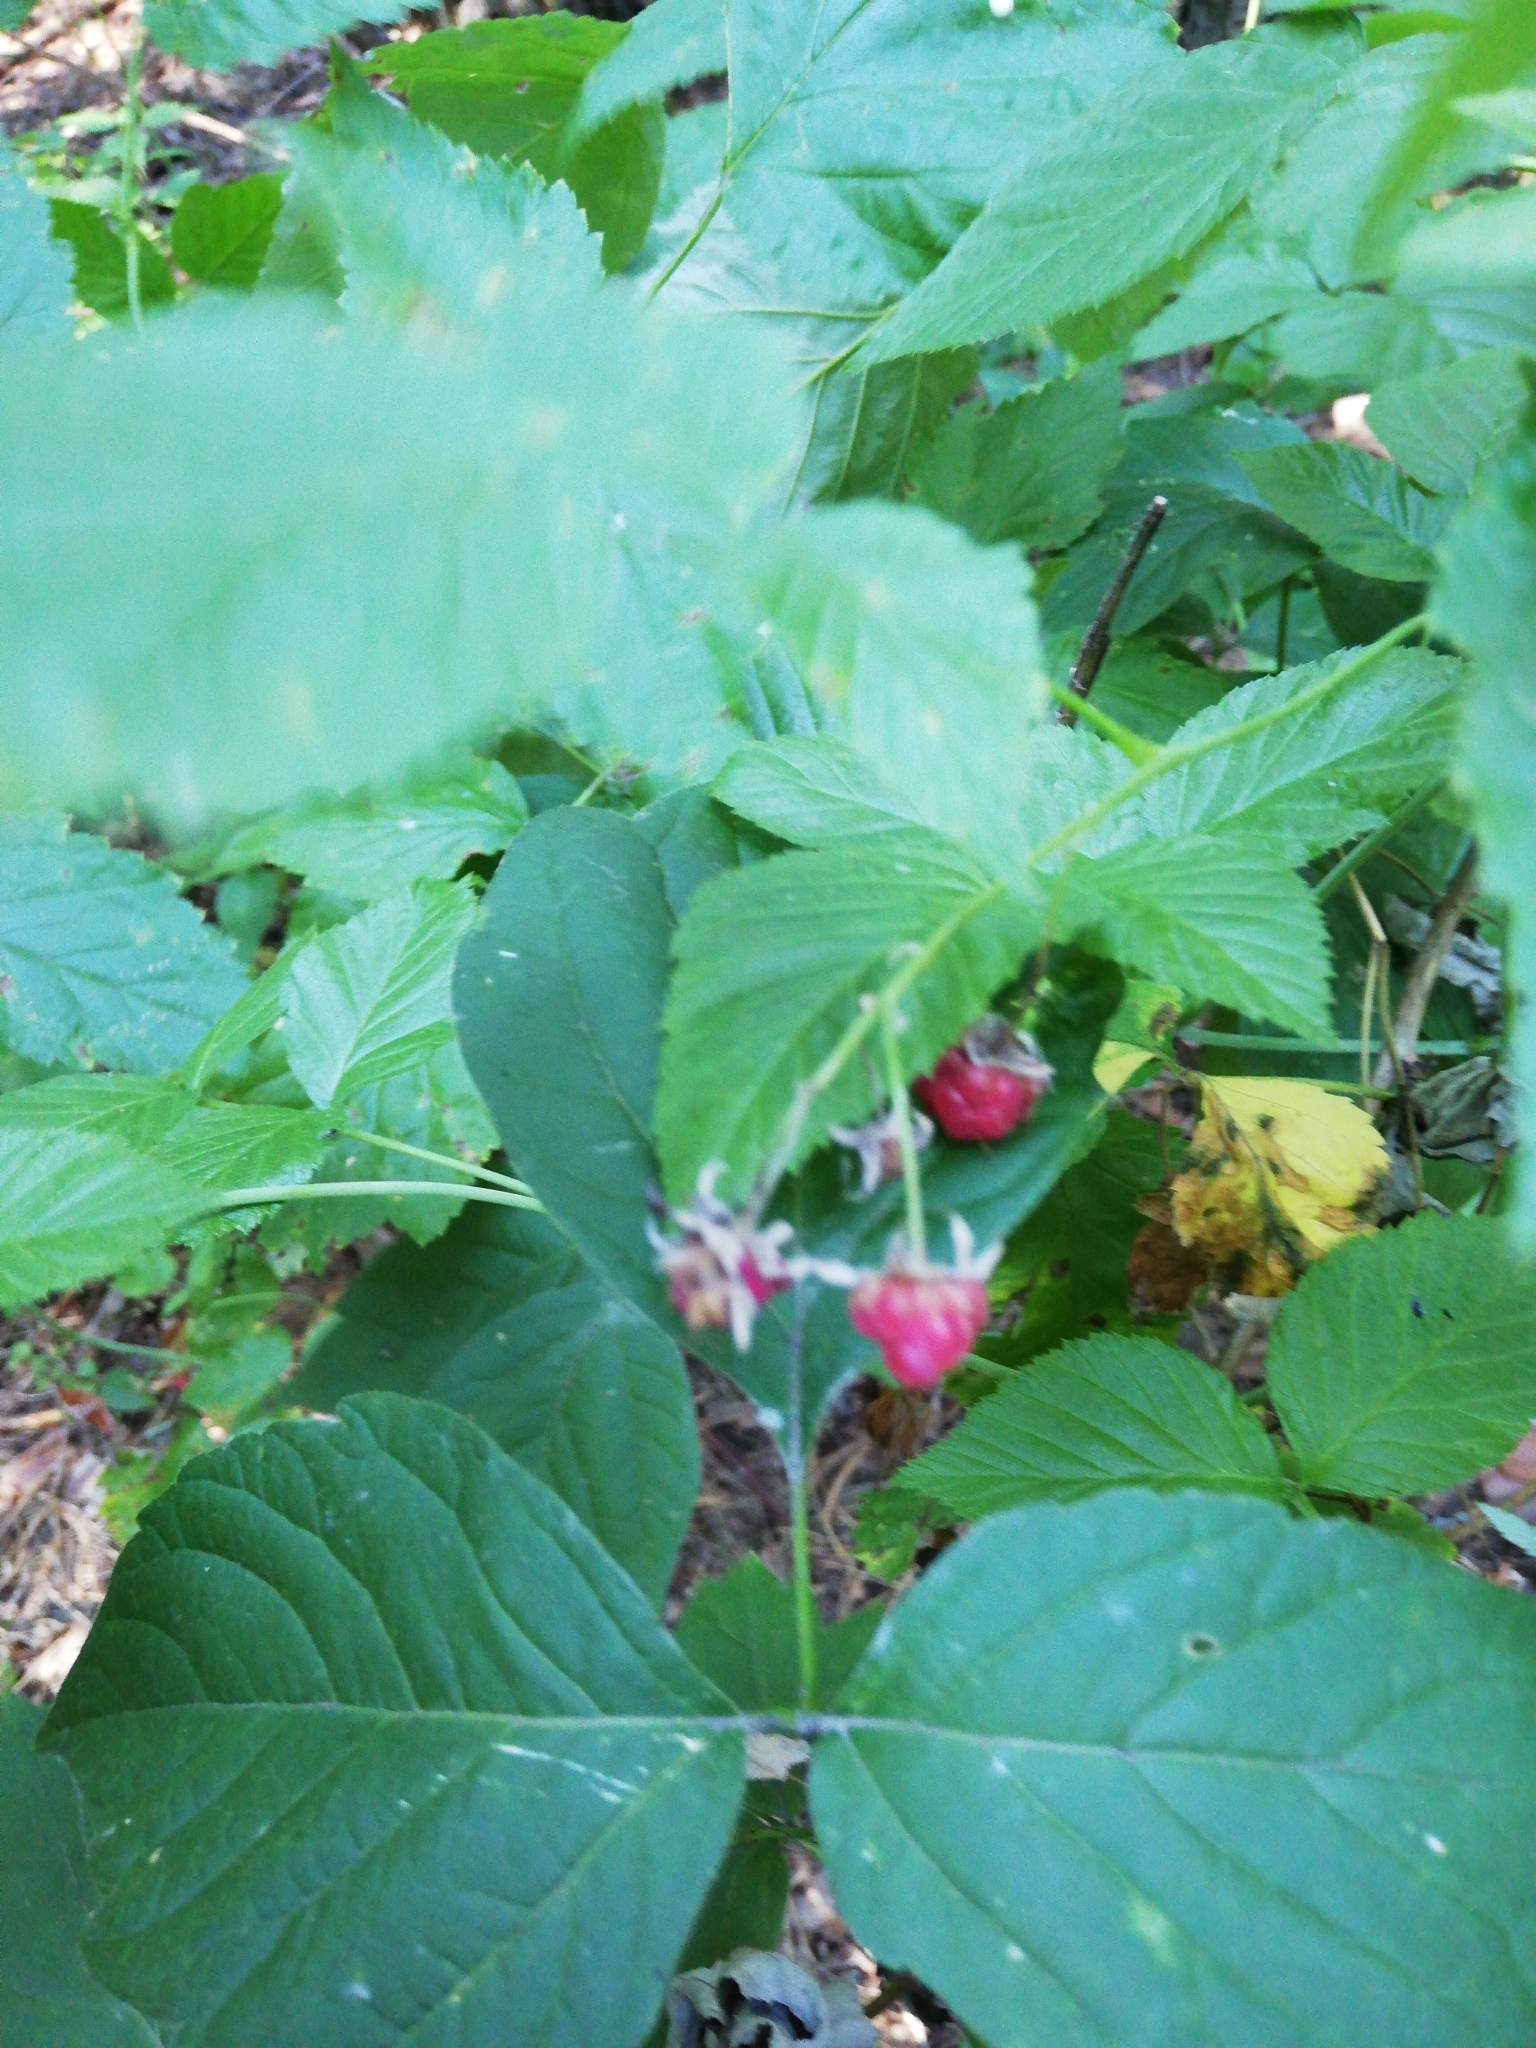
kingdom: Plantae
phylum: Tracheophyta
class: Magnoliopsida
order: Rosales
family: Rosaceae
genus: Rubus
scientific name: Rubus idaeus
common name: Raspberry
